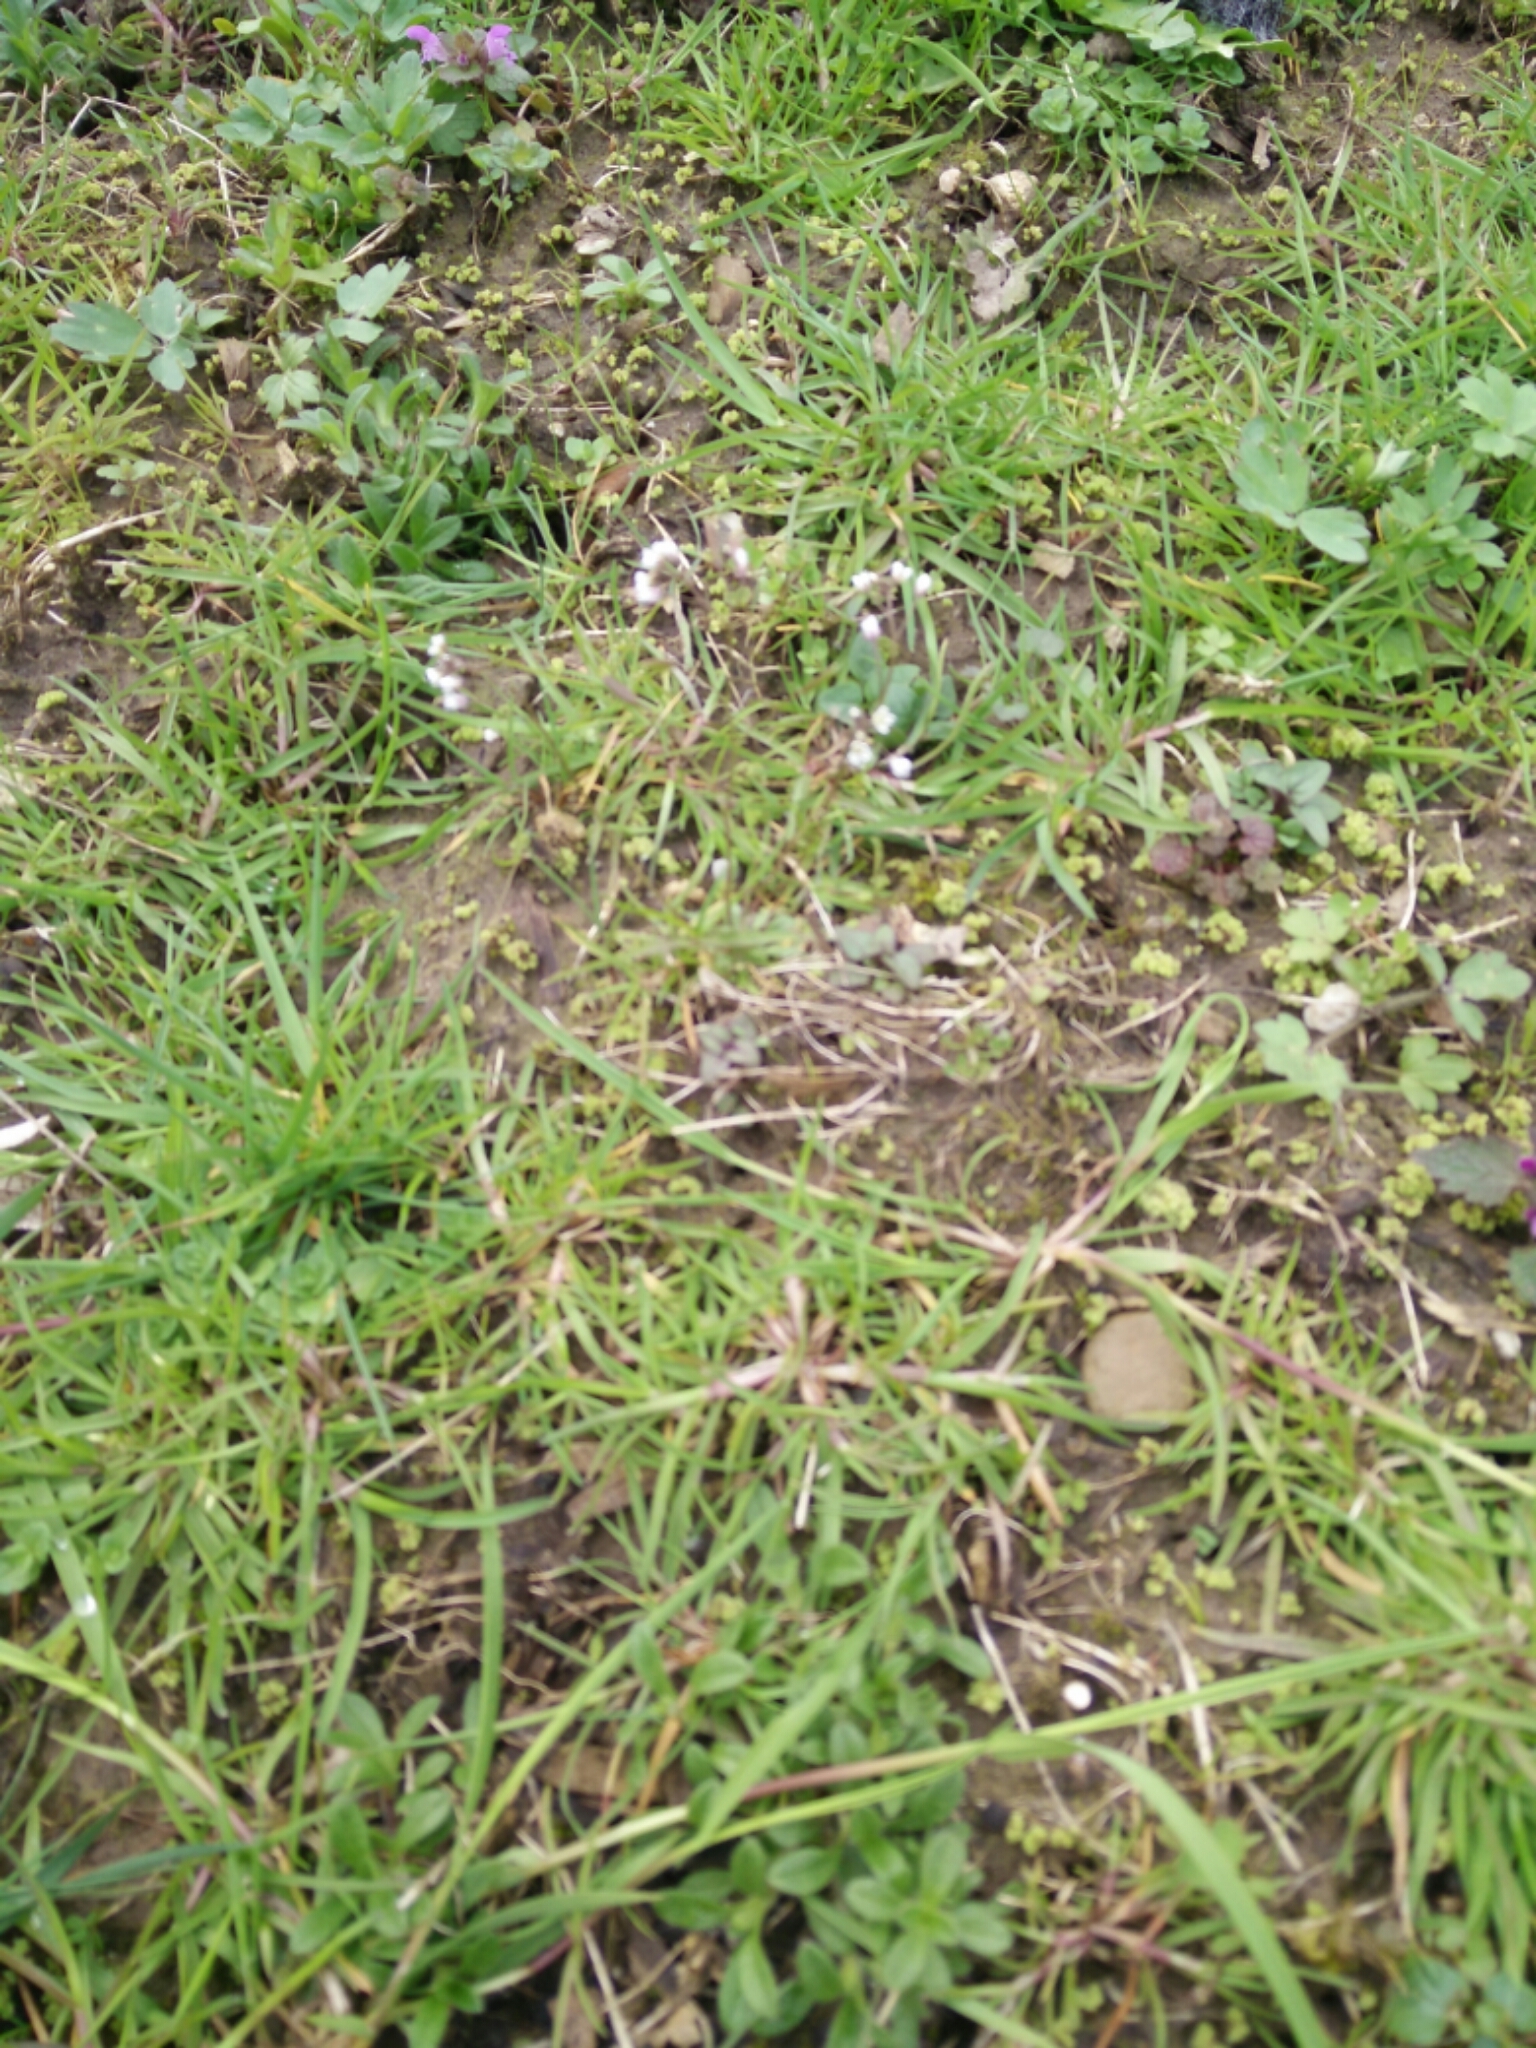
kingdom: Plantae
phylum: Tracheophyta
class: Magnoliopsida
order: Brassicales
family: Brassicaceae
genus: Draba
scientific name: Draba verna
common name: Spring draba
